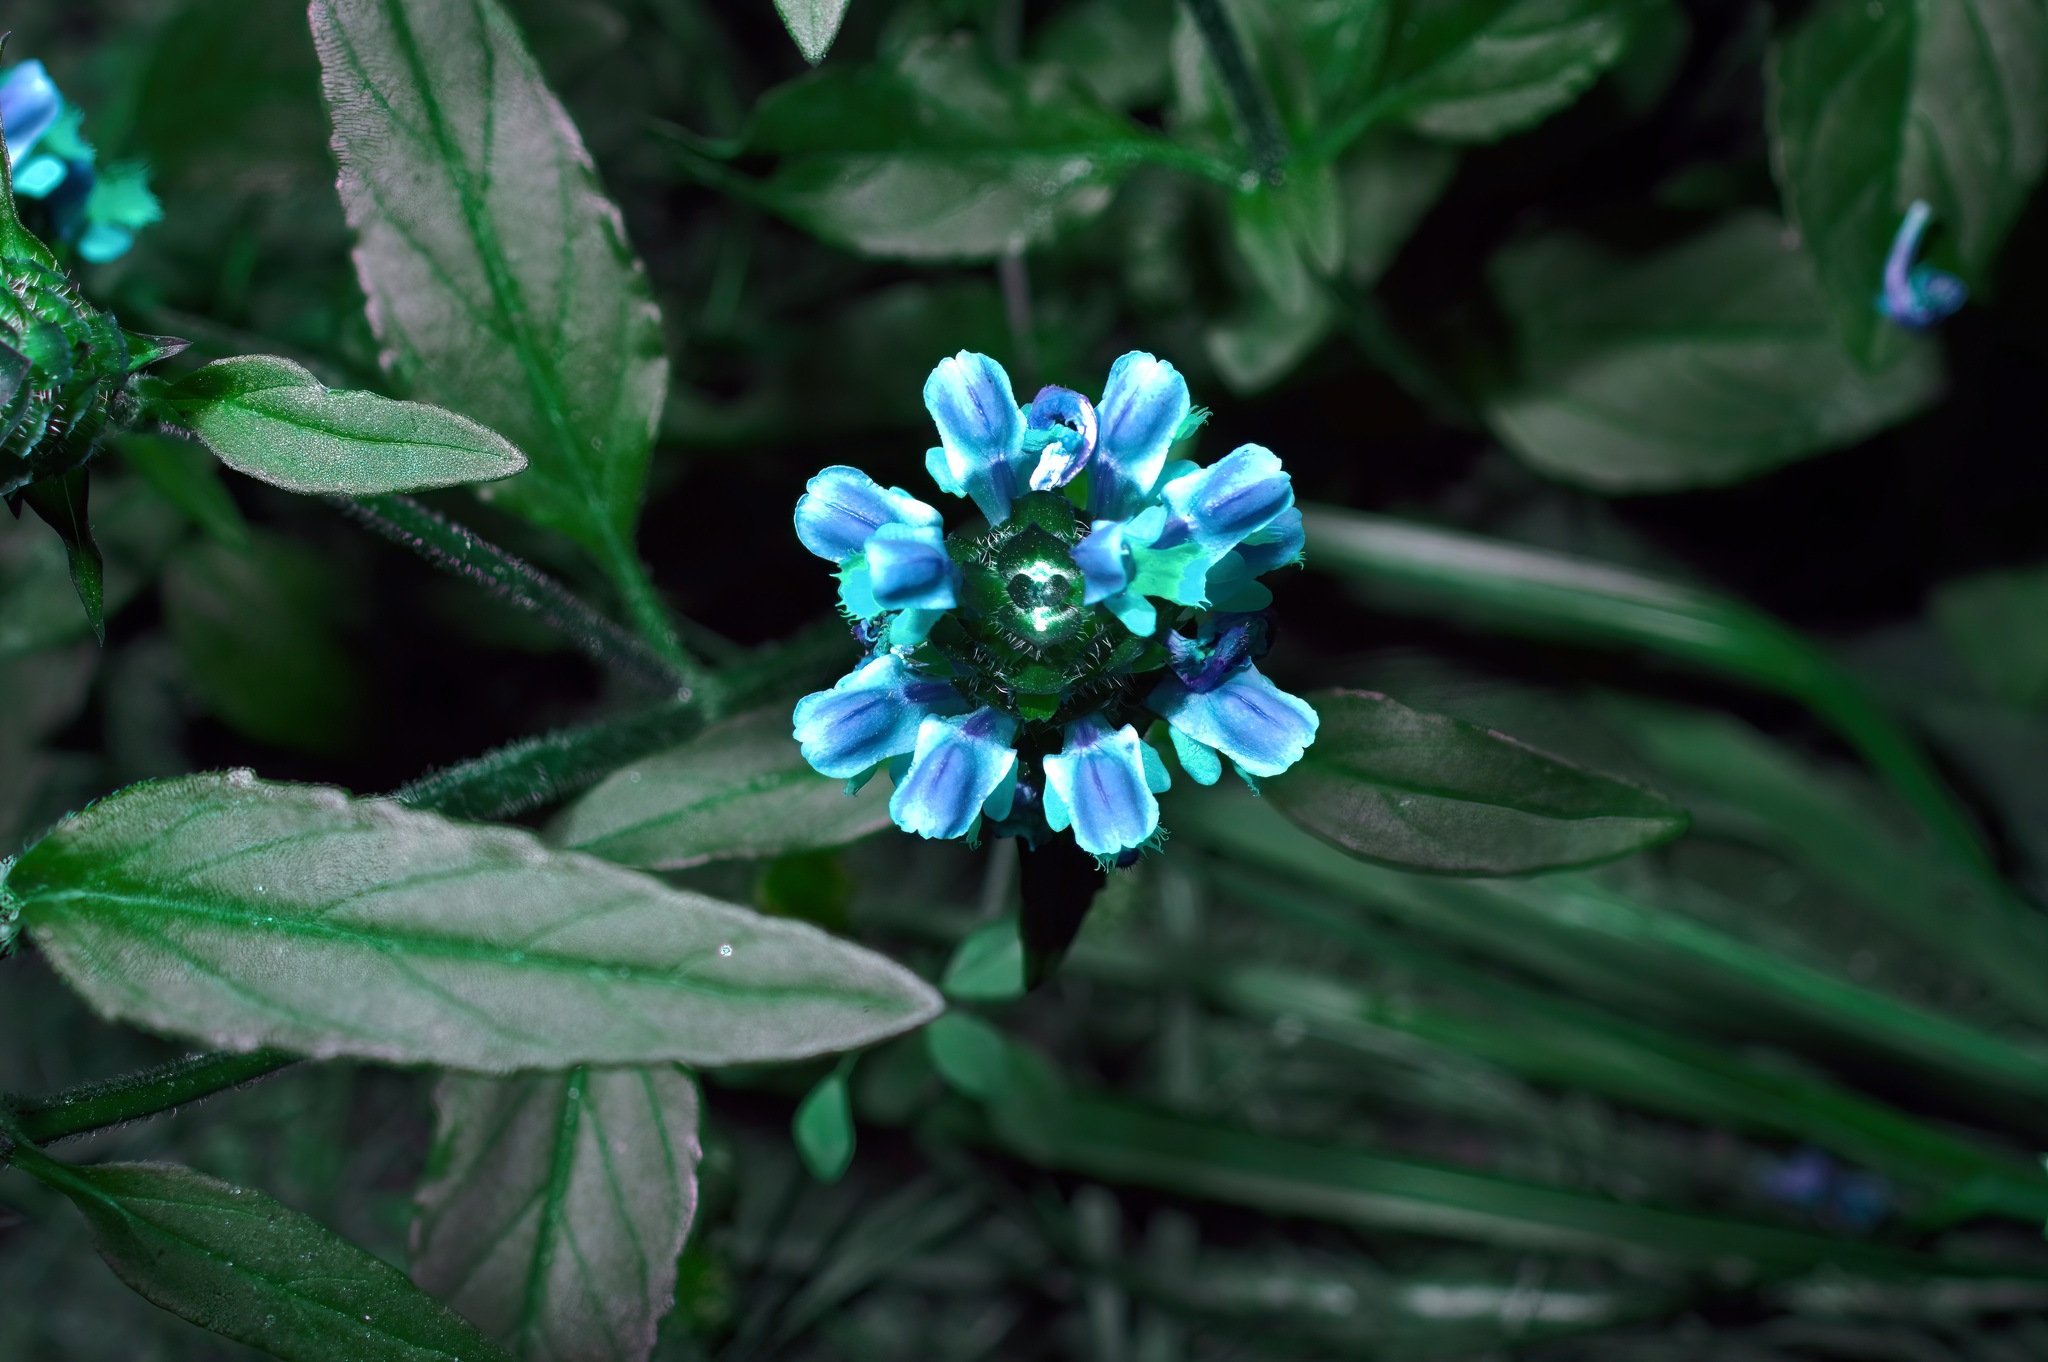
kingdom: Plantae
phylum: Tracheophyta
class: Magnoliopsida
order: Lamiales
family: Lamiaceae
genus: Prunella
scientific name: Prunella vulgaris
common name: Heal-all
